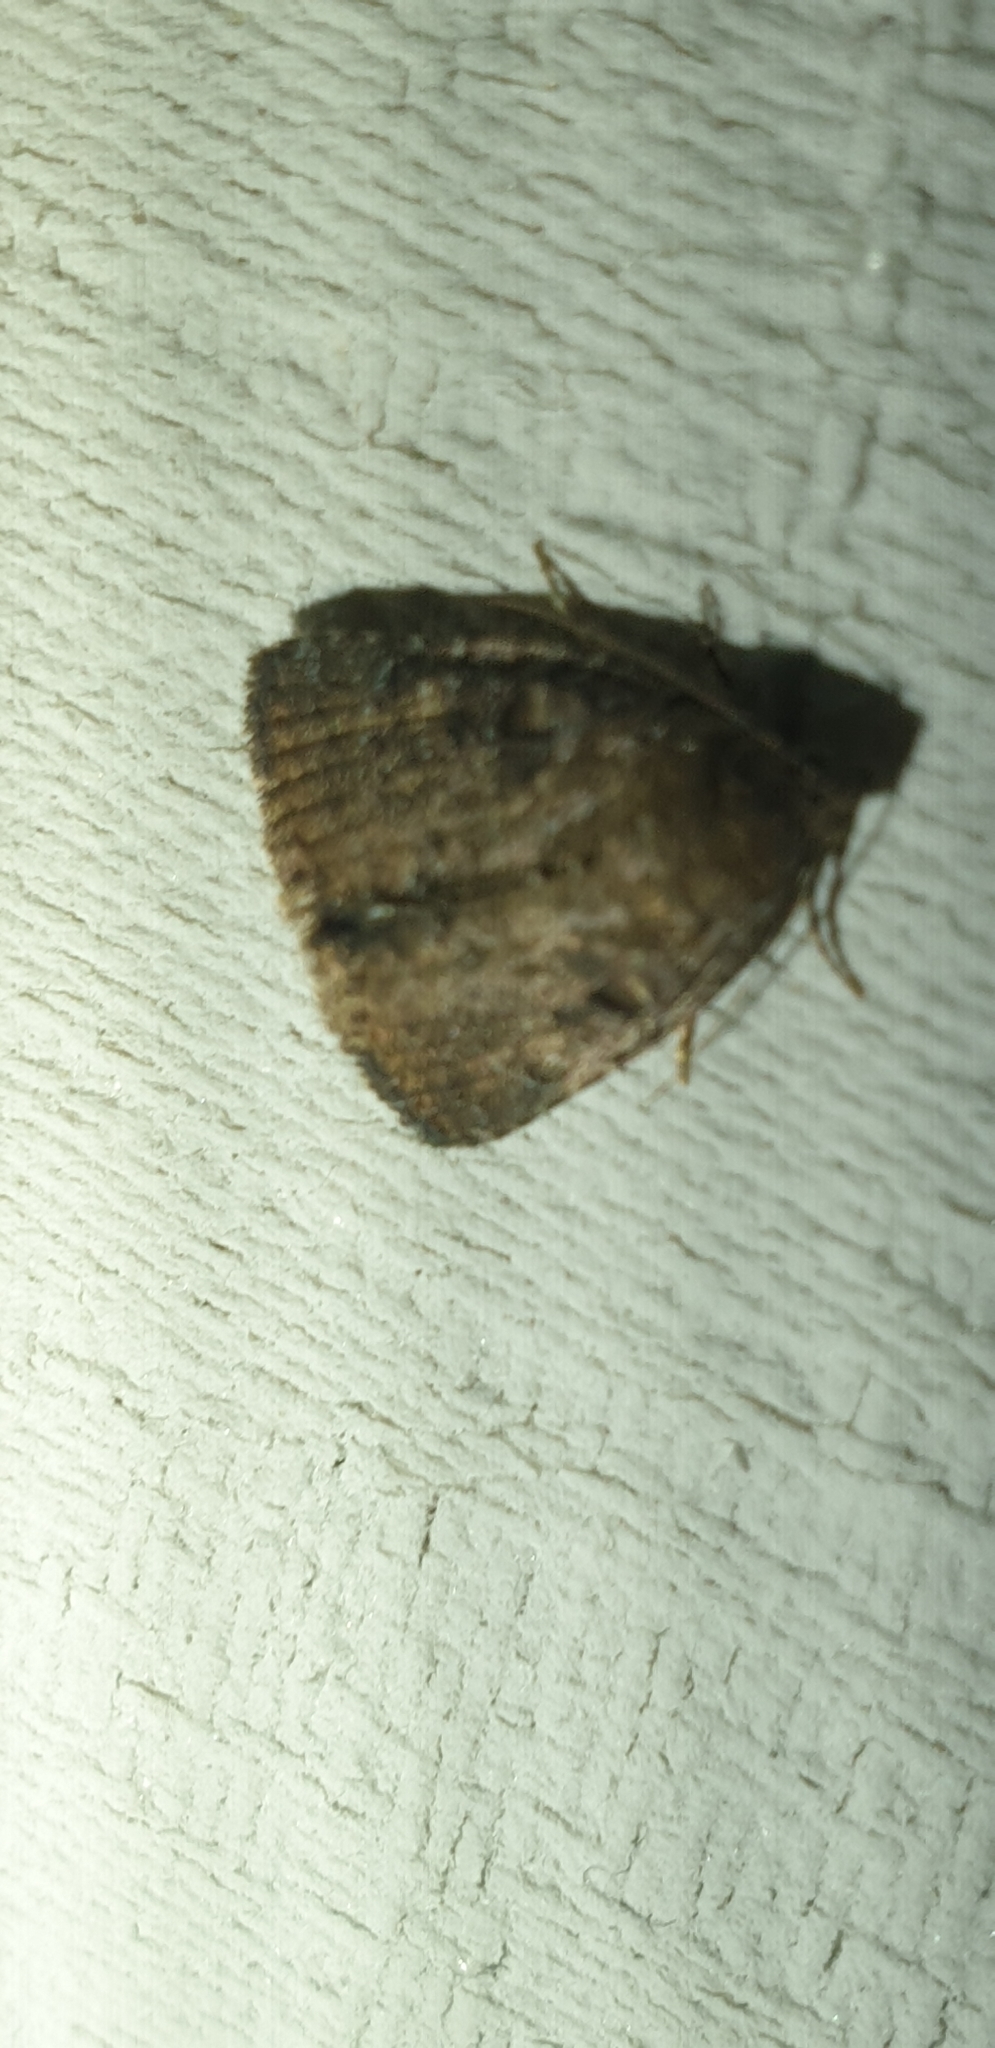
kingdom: Animalia
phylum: Arthropoda
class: Insecta
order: Lepidoptera
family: Noctuidae
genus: Amyna
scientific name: Amyna natalis
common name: Iiima moth
